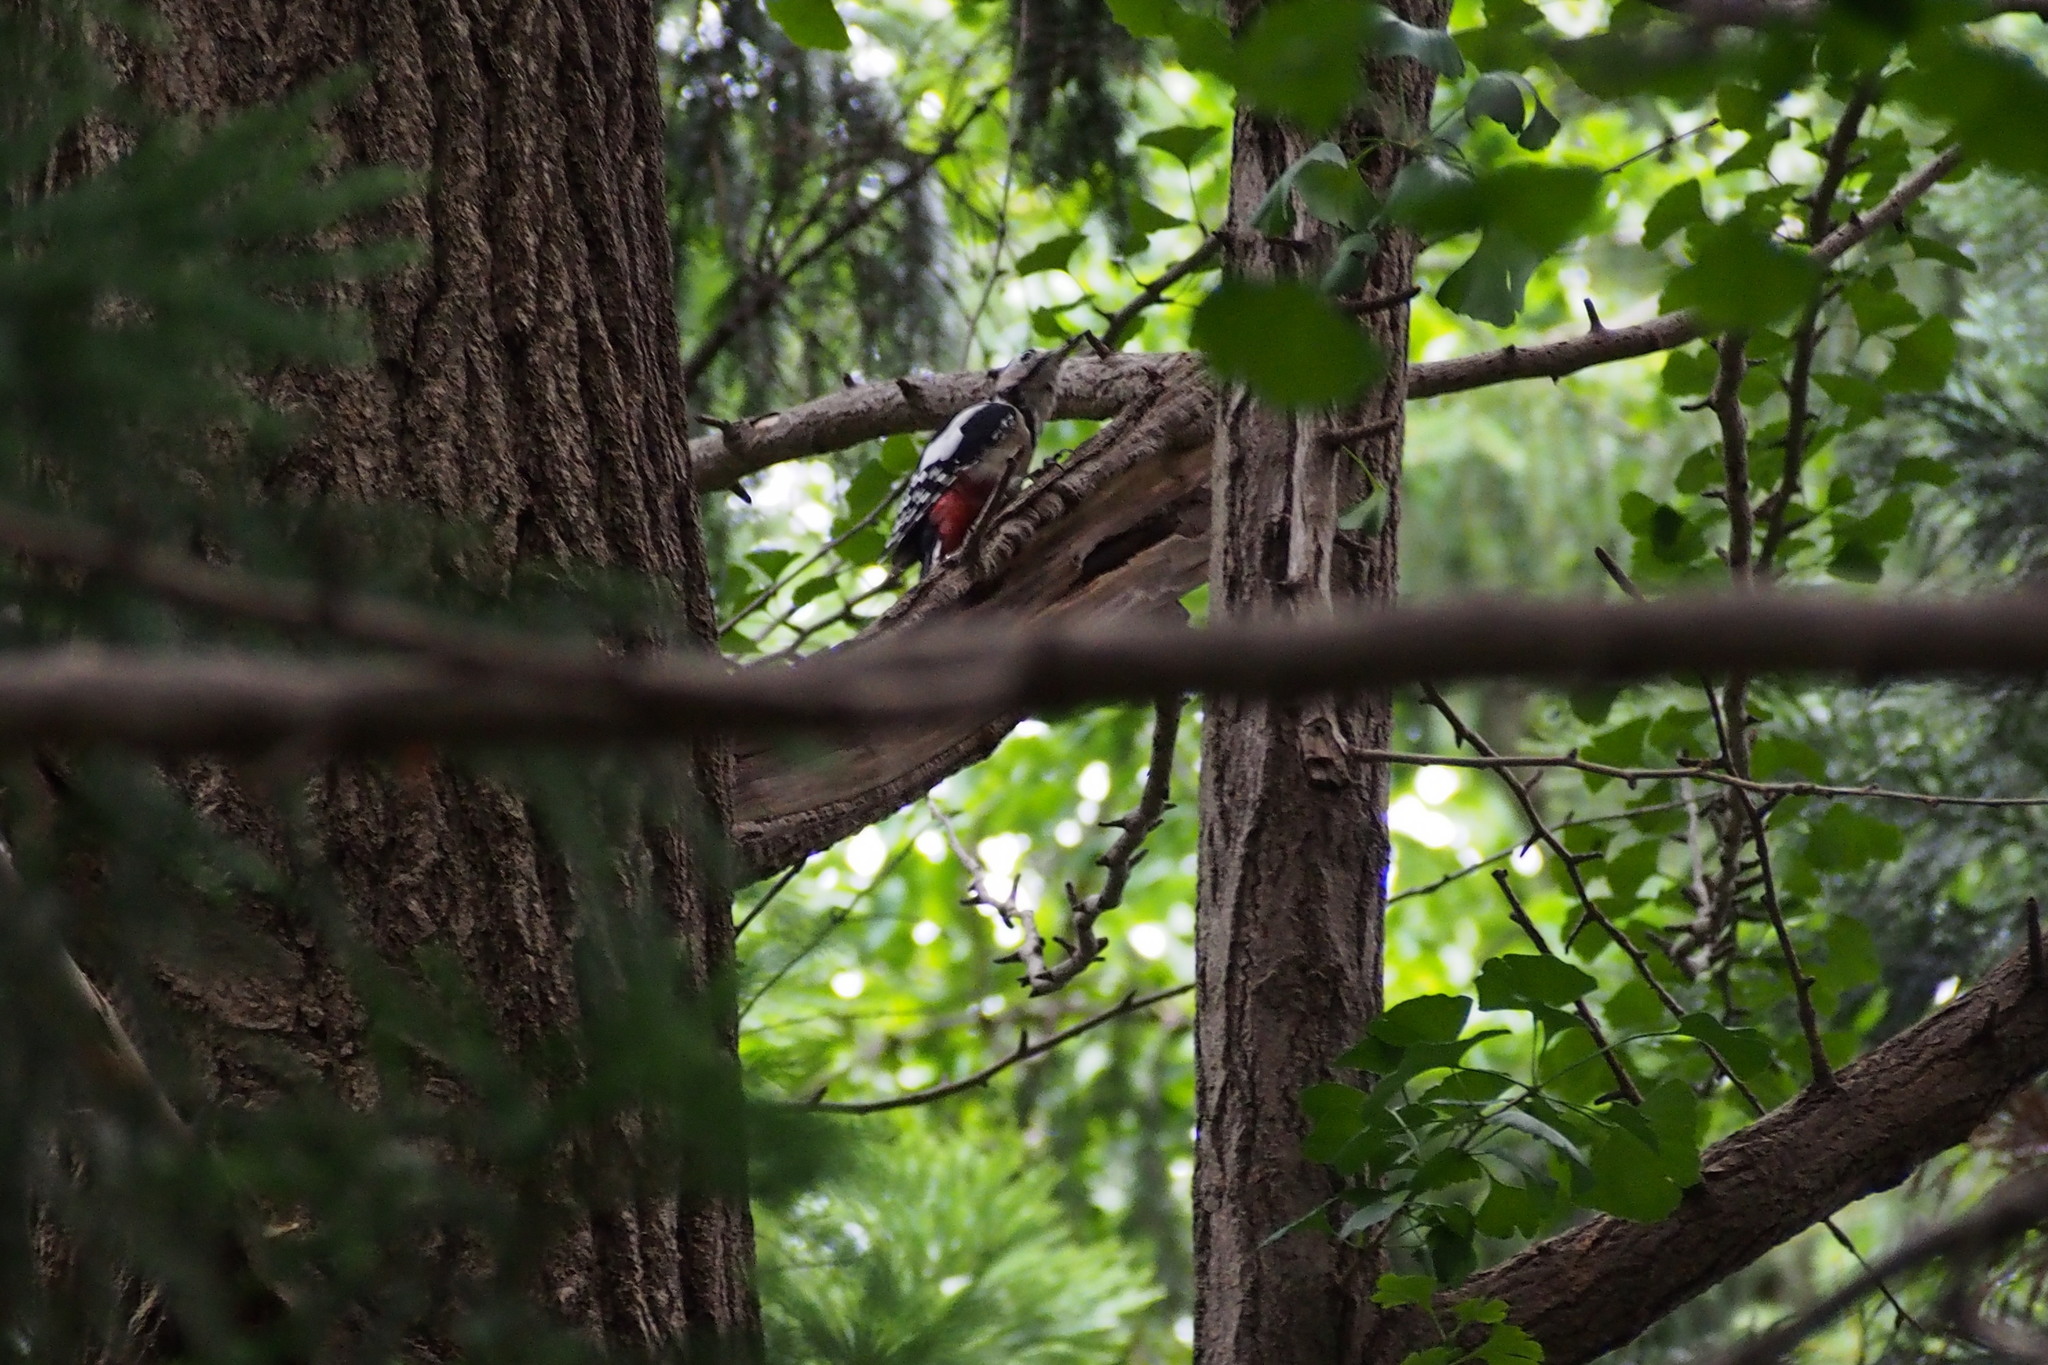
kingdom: Animalia
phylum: Chordata
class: Aves
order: Piciformes
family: Picidae
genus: Dendrocopos
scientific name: Dendrocopos major
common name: Great spotted woodpecker
